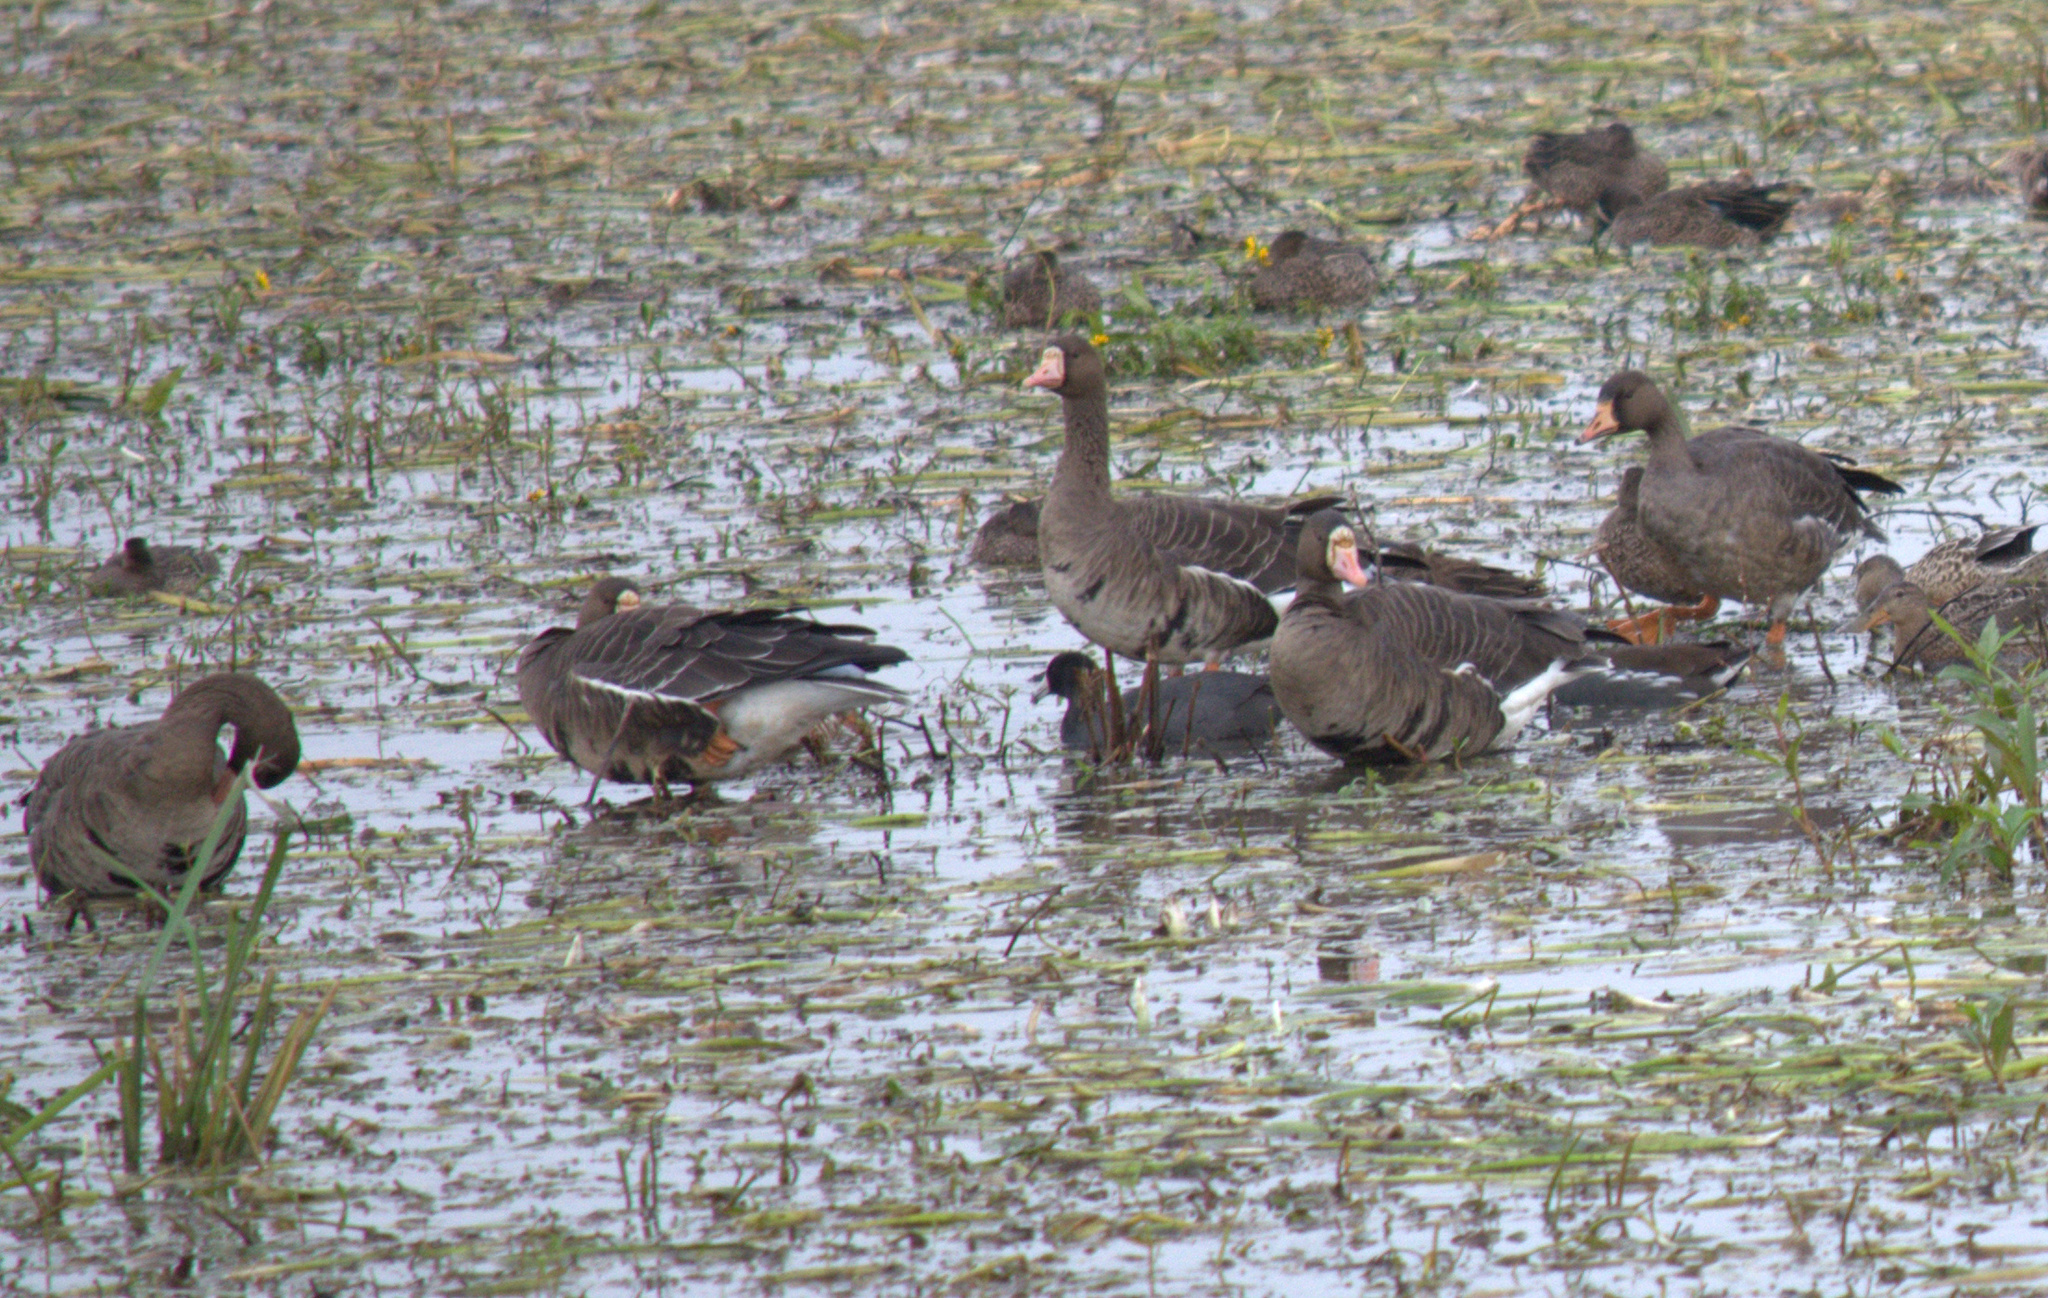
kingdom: Animalia
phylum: Chordata
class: Aves
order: Anseriformes
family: Anatidae
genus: Anser
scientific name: Anser albifrons
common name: Greater white-fronted goose
